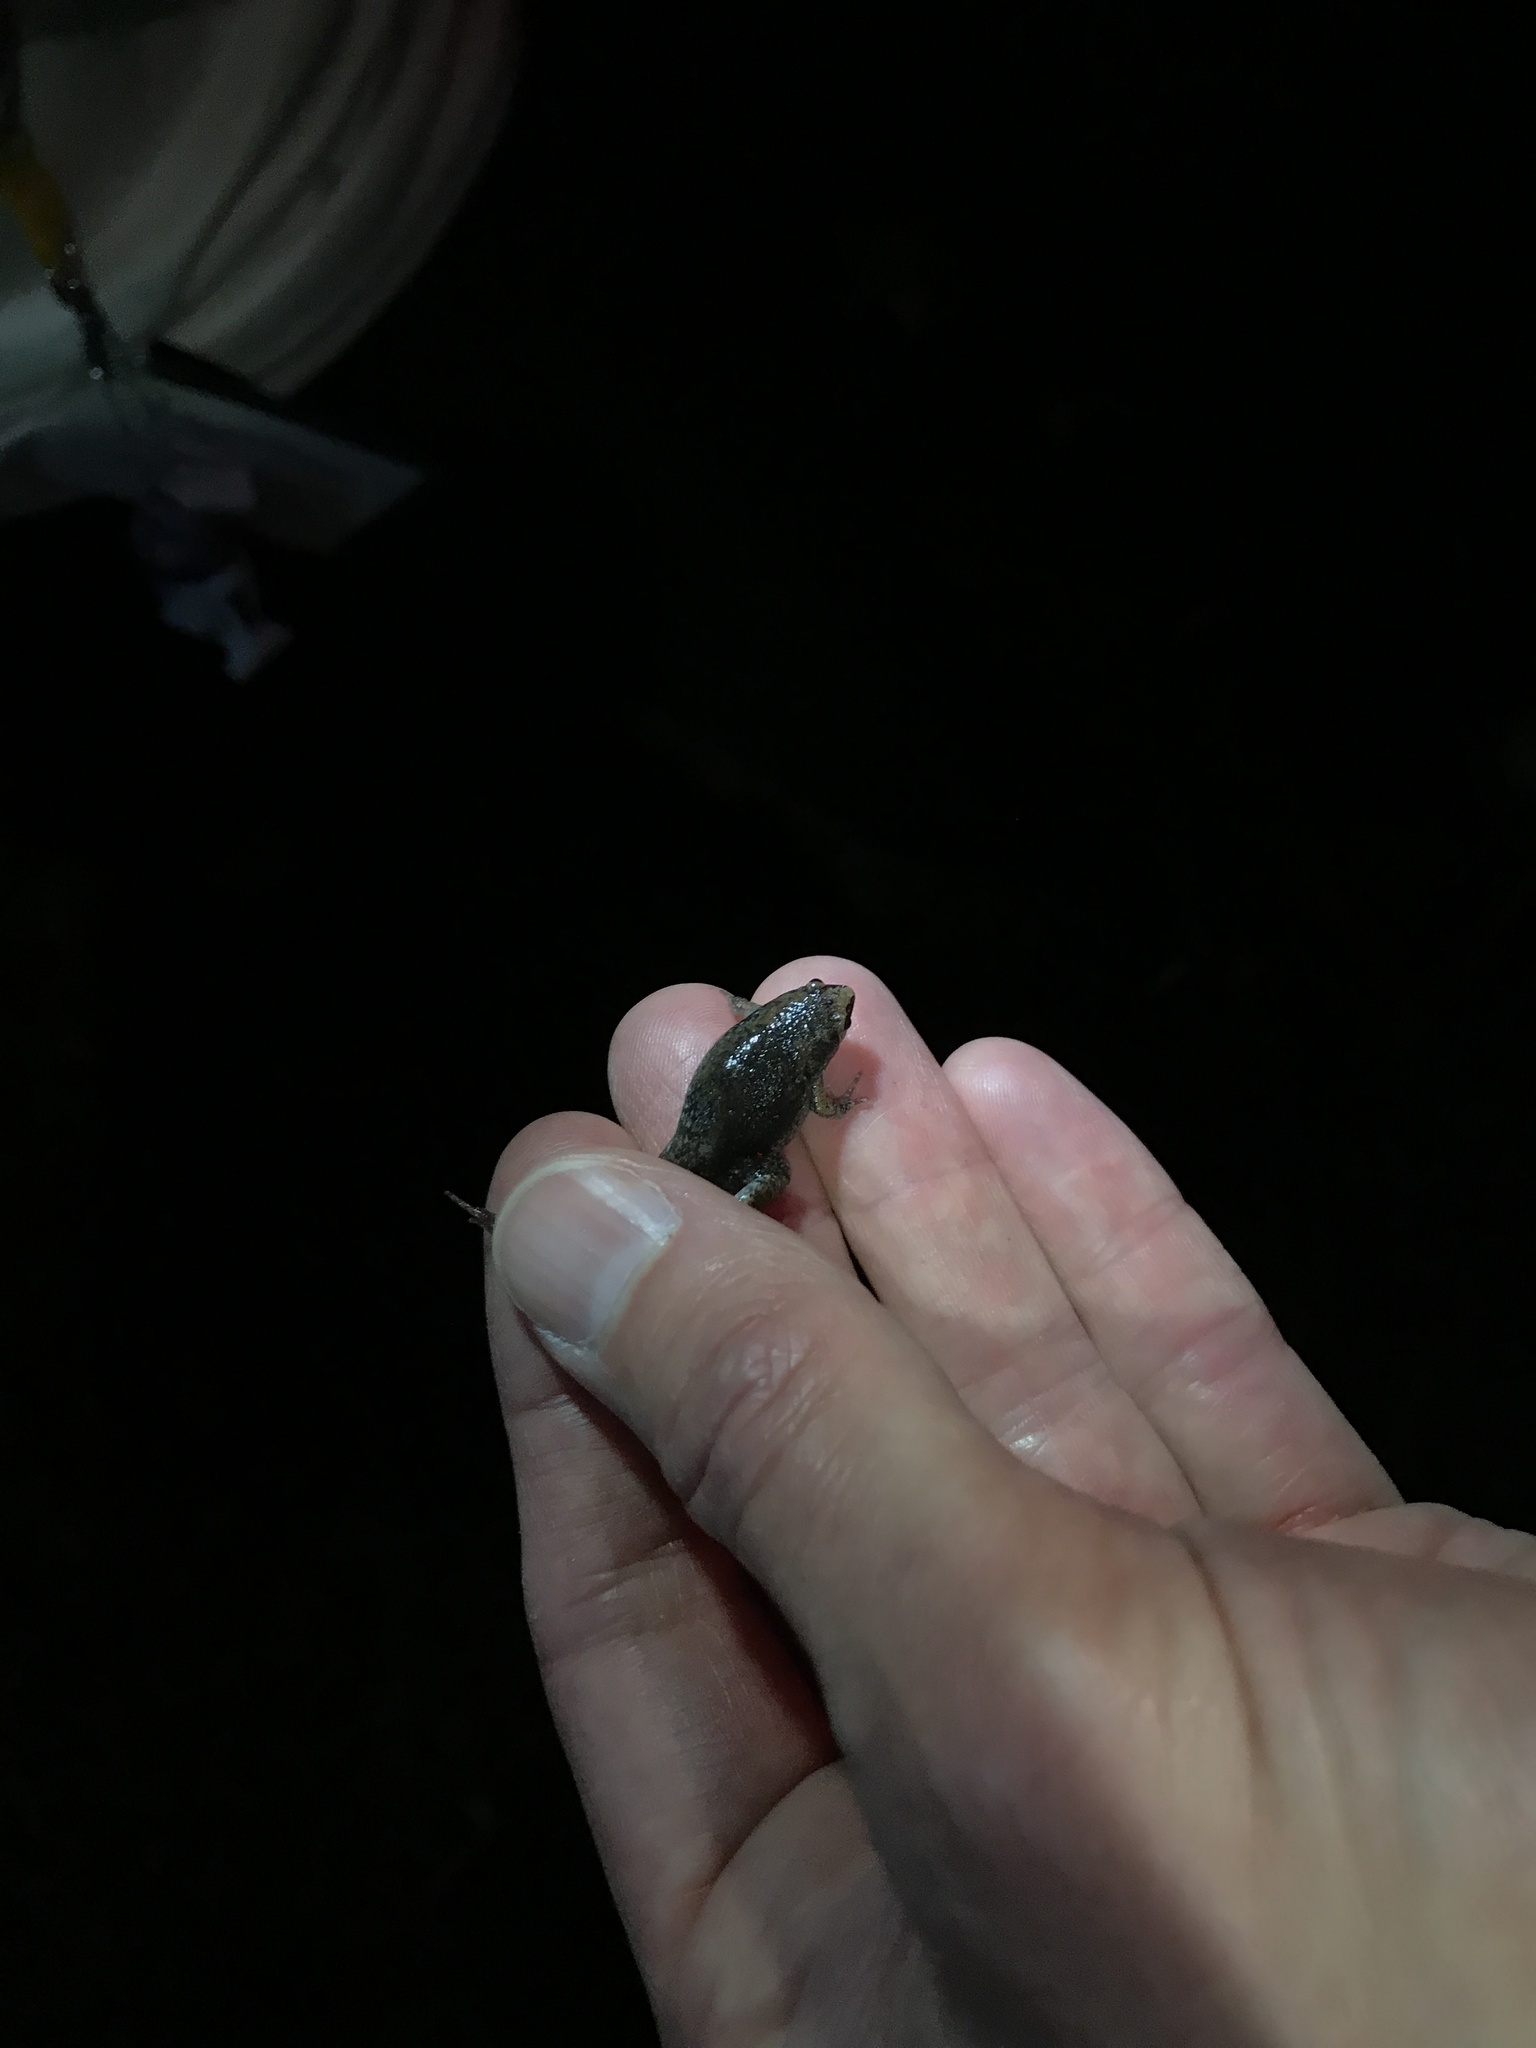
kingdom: Animalia
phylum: Chordata
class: Amphibia
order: Anura
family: Microhylidae
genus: Gastrophryne
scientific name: Gastrophryne carolinensis
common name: Eastern narrowmouth toad
